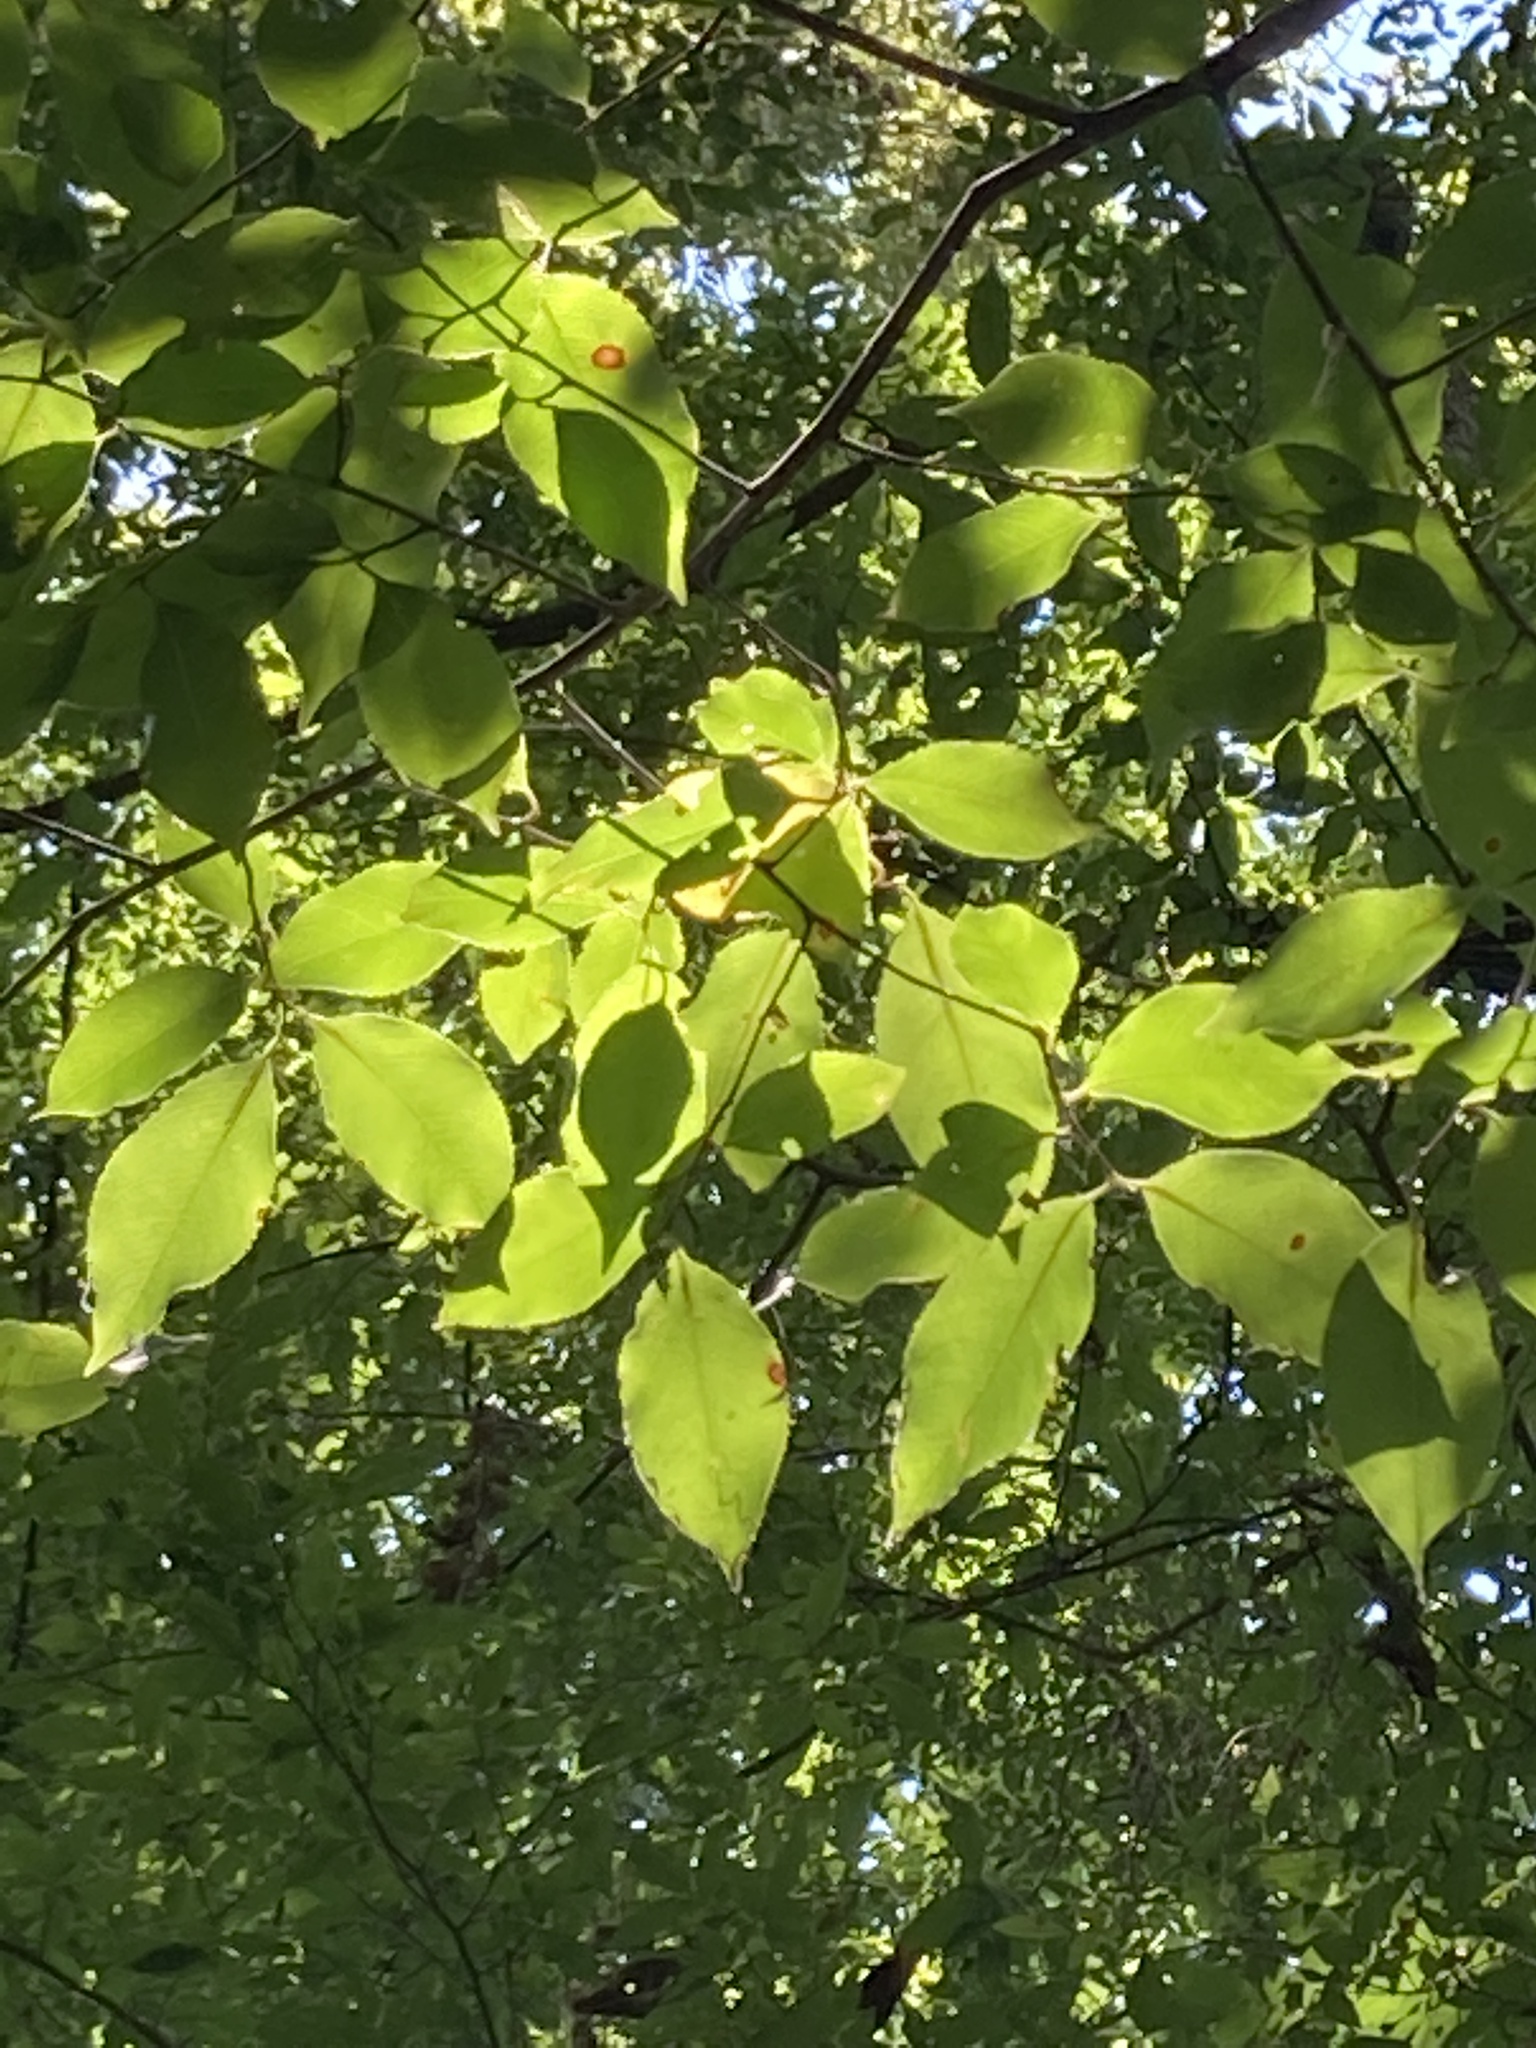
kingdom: Plantae
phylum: Tracheophyta
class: Magnoliopsida
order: Rosales
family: Rosaceae
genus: Prunus
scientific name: Prunus serotina
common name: Black cherry
